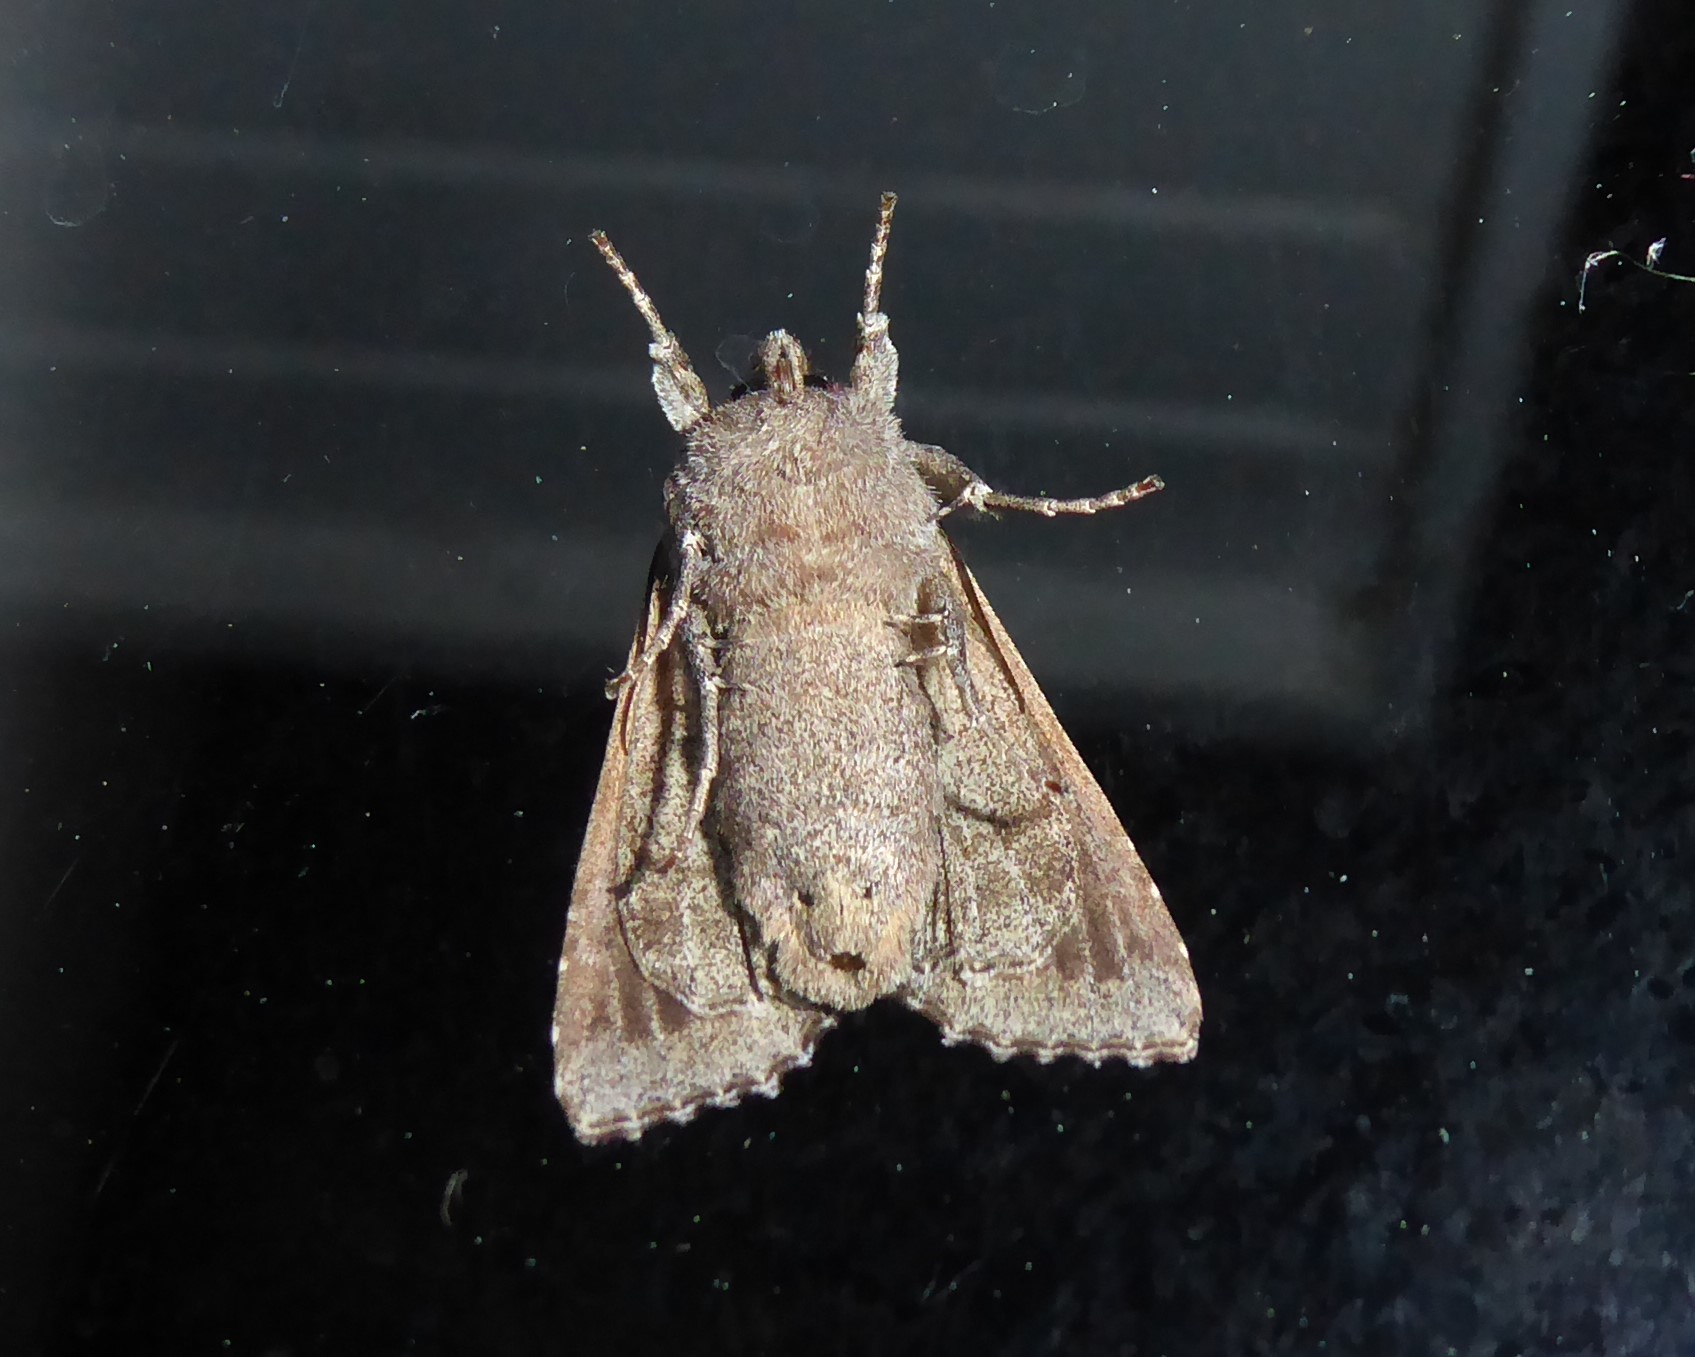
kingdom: Animalia
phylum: Arthropoda
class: Insecta
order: Lepidoptera
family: Noctuidae
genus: Ichneutica
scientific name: Ichneutica
